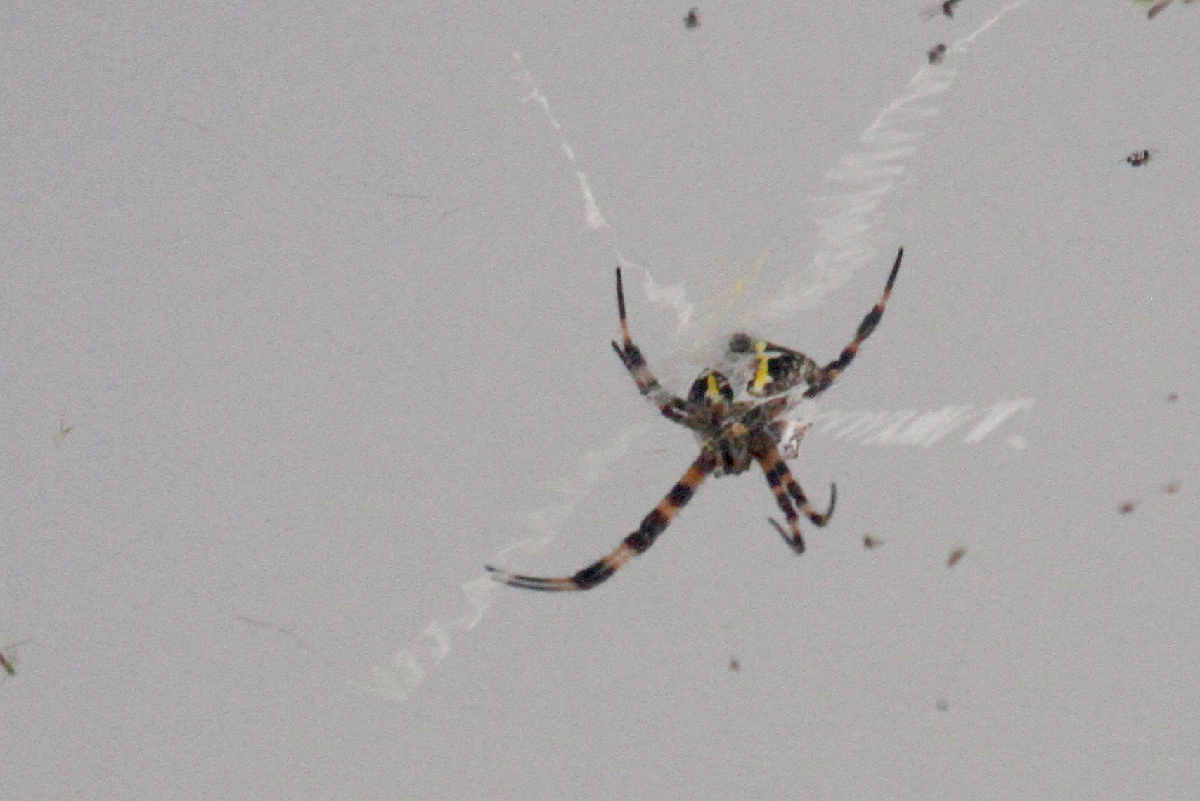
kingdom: Animalia
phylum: Arthropoda
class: Arachnida
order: Araneae
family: Araneidae
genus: Argiope
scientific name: Argiope appensa
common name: Garden spider
